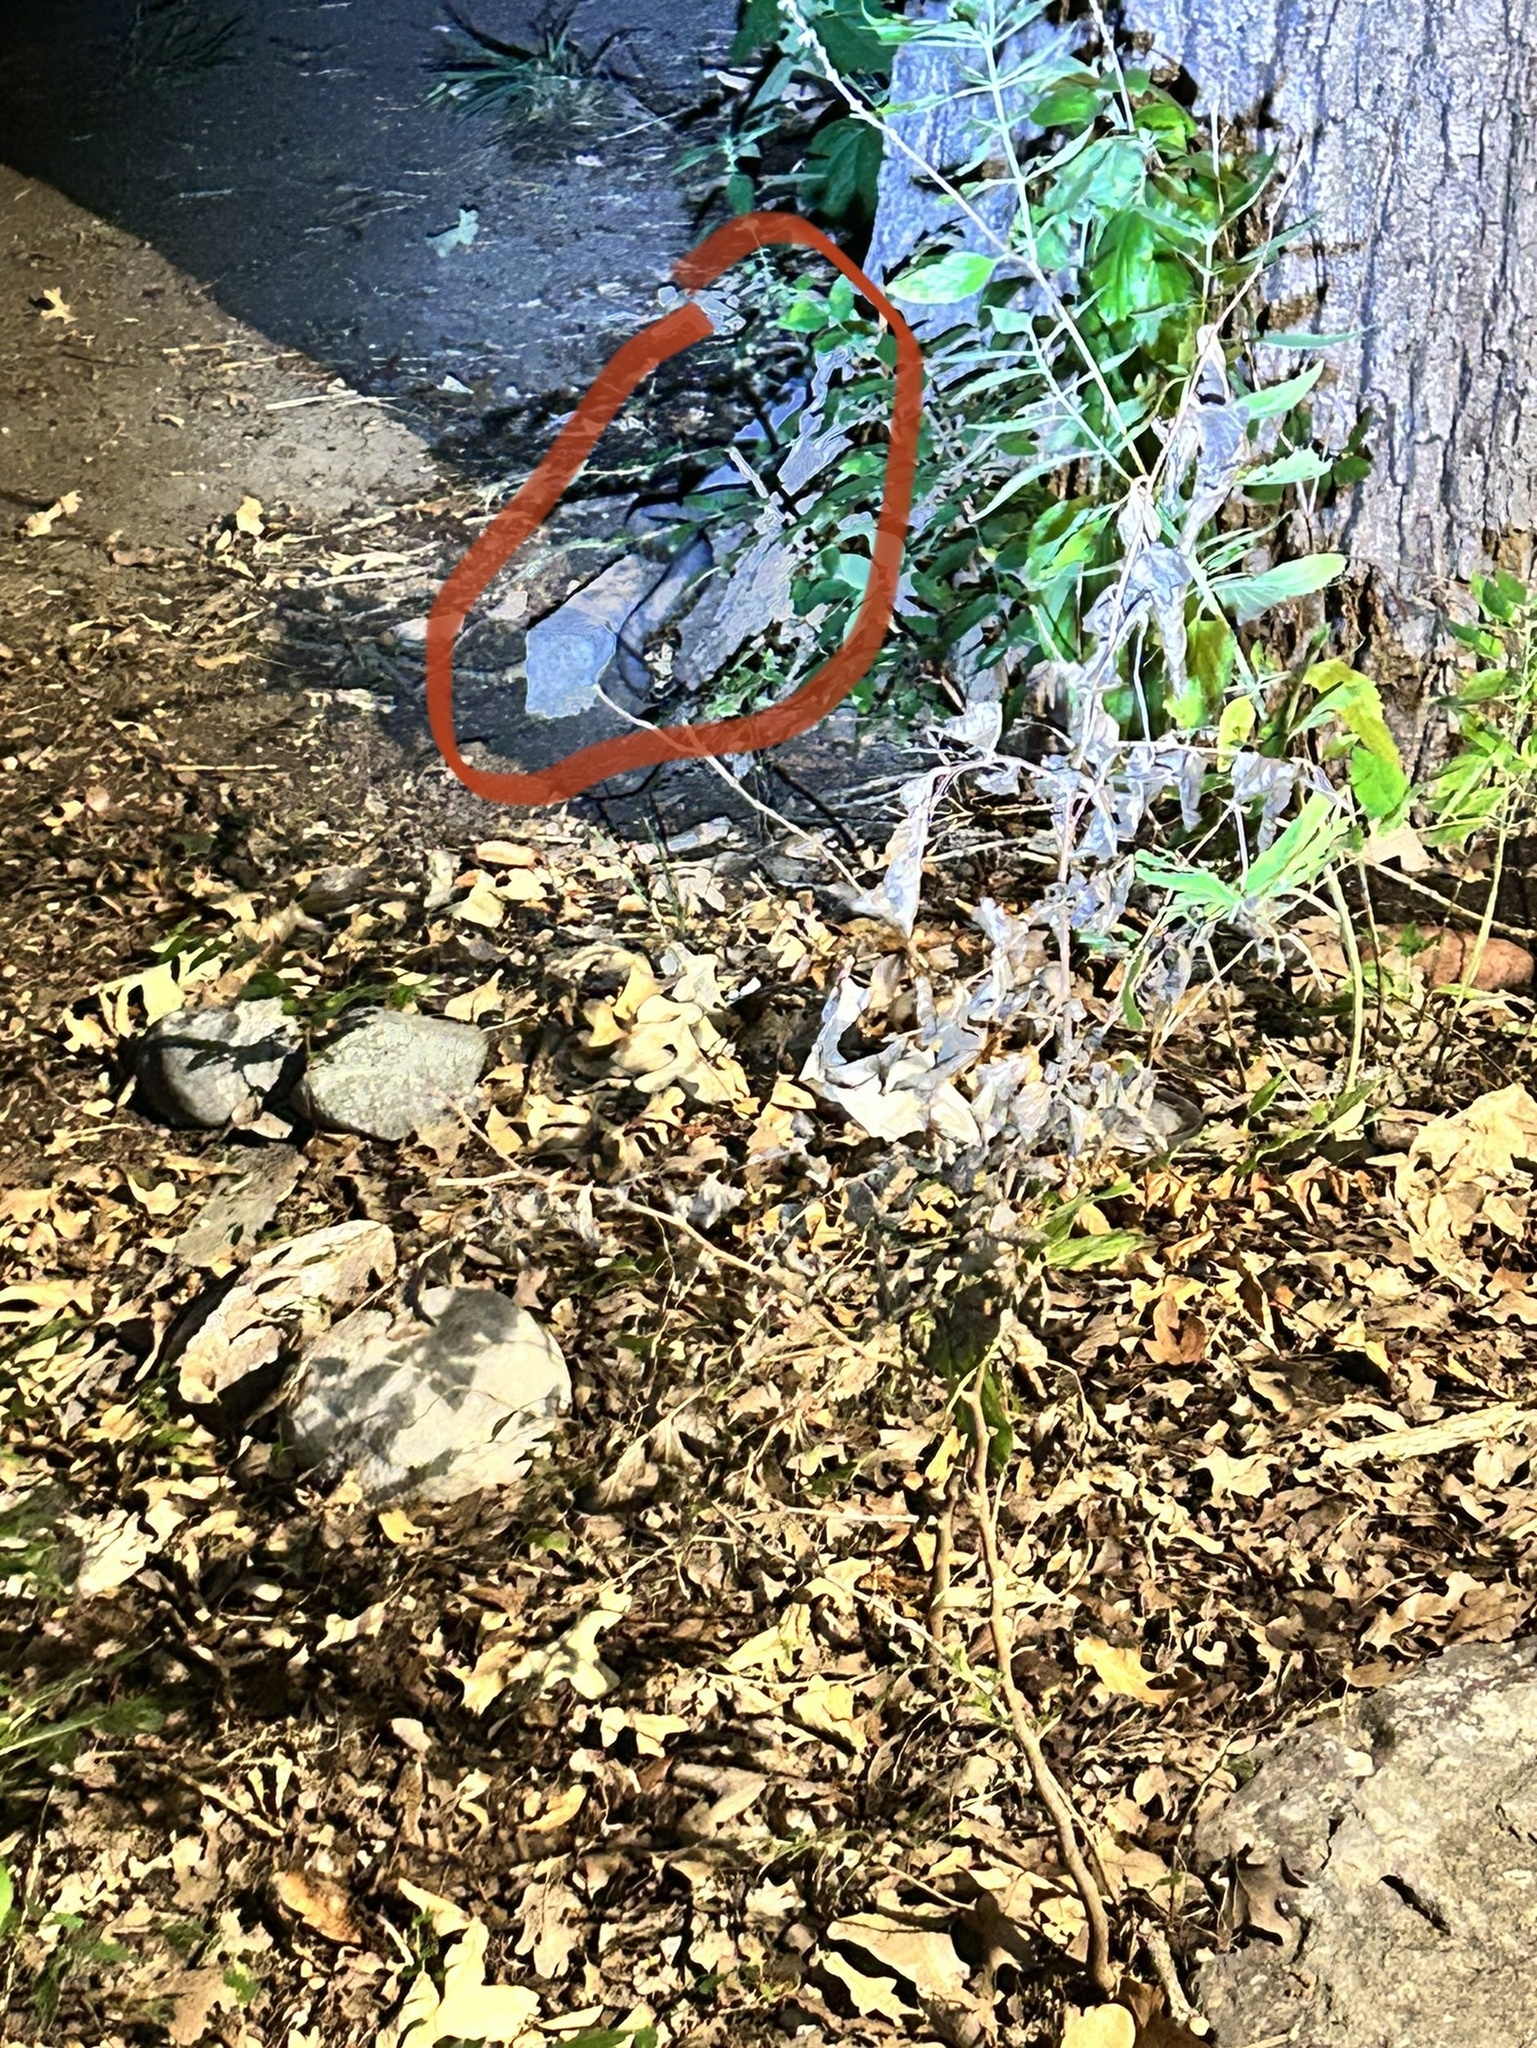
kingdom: Animalia
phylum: Chordata
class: Squamata
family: Viperidae
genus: Agkistrodon
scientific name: Agkistrodon piscivorus
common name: Cottonmouth
